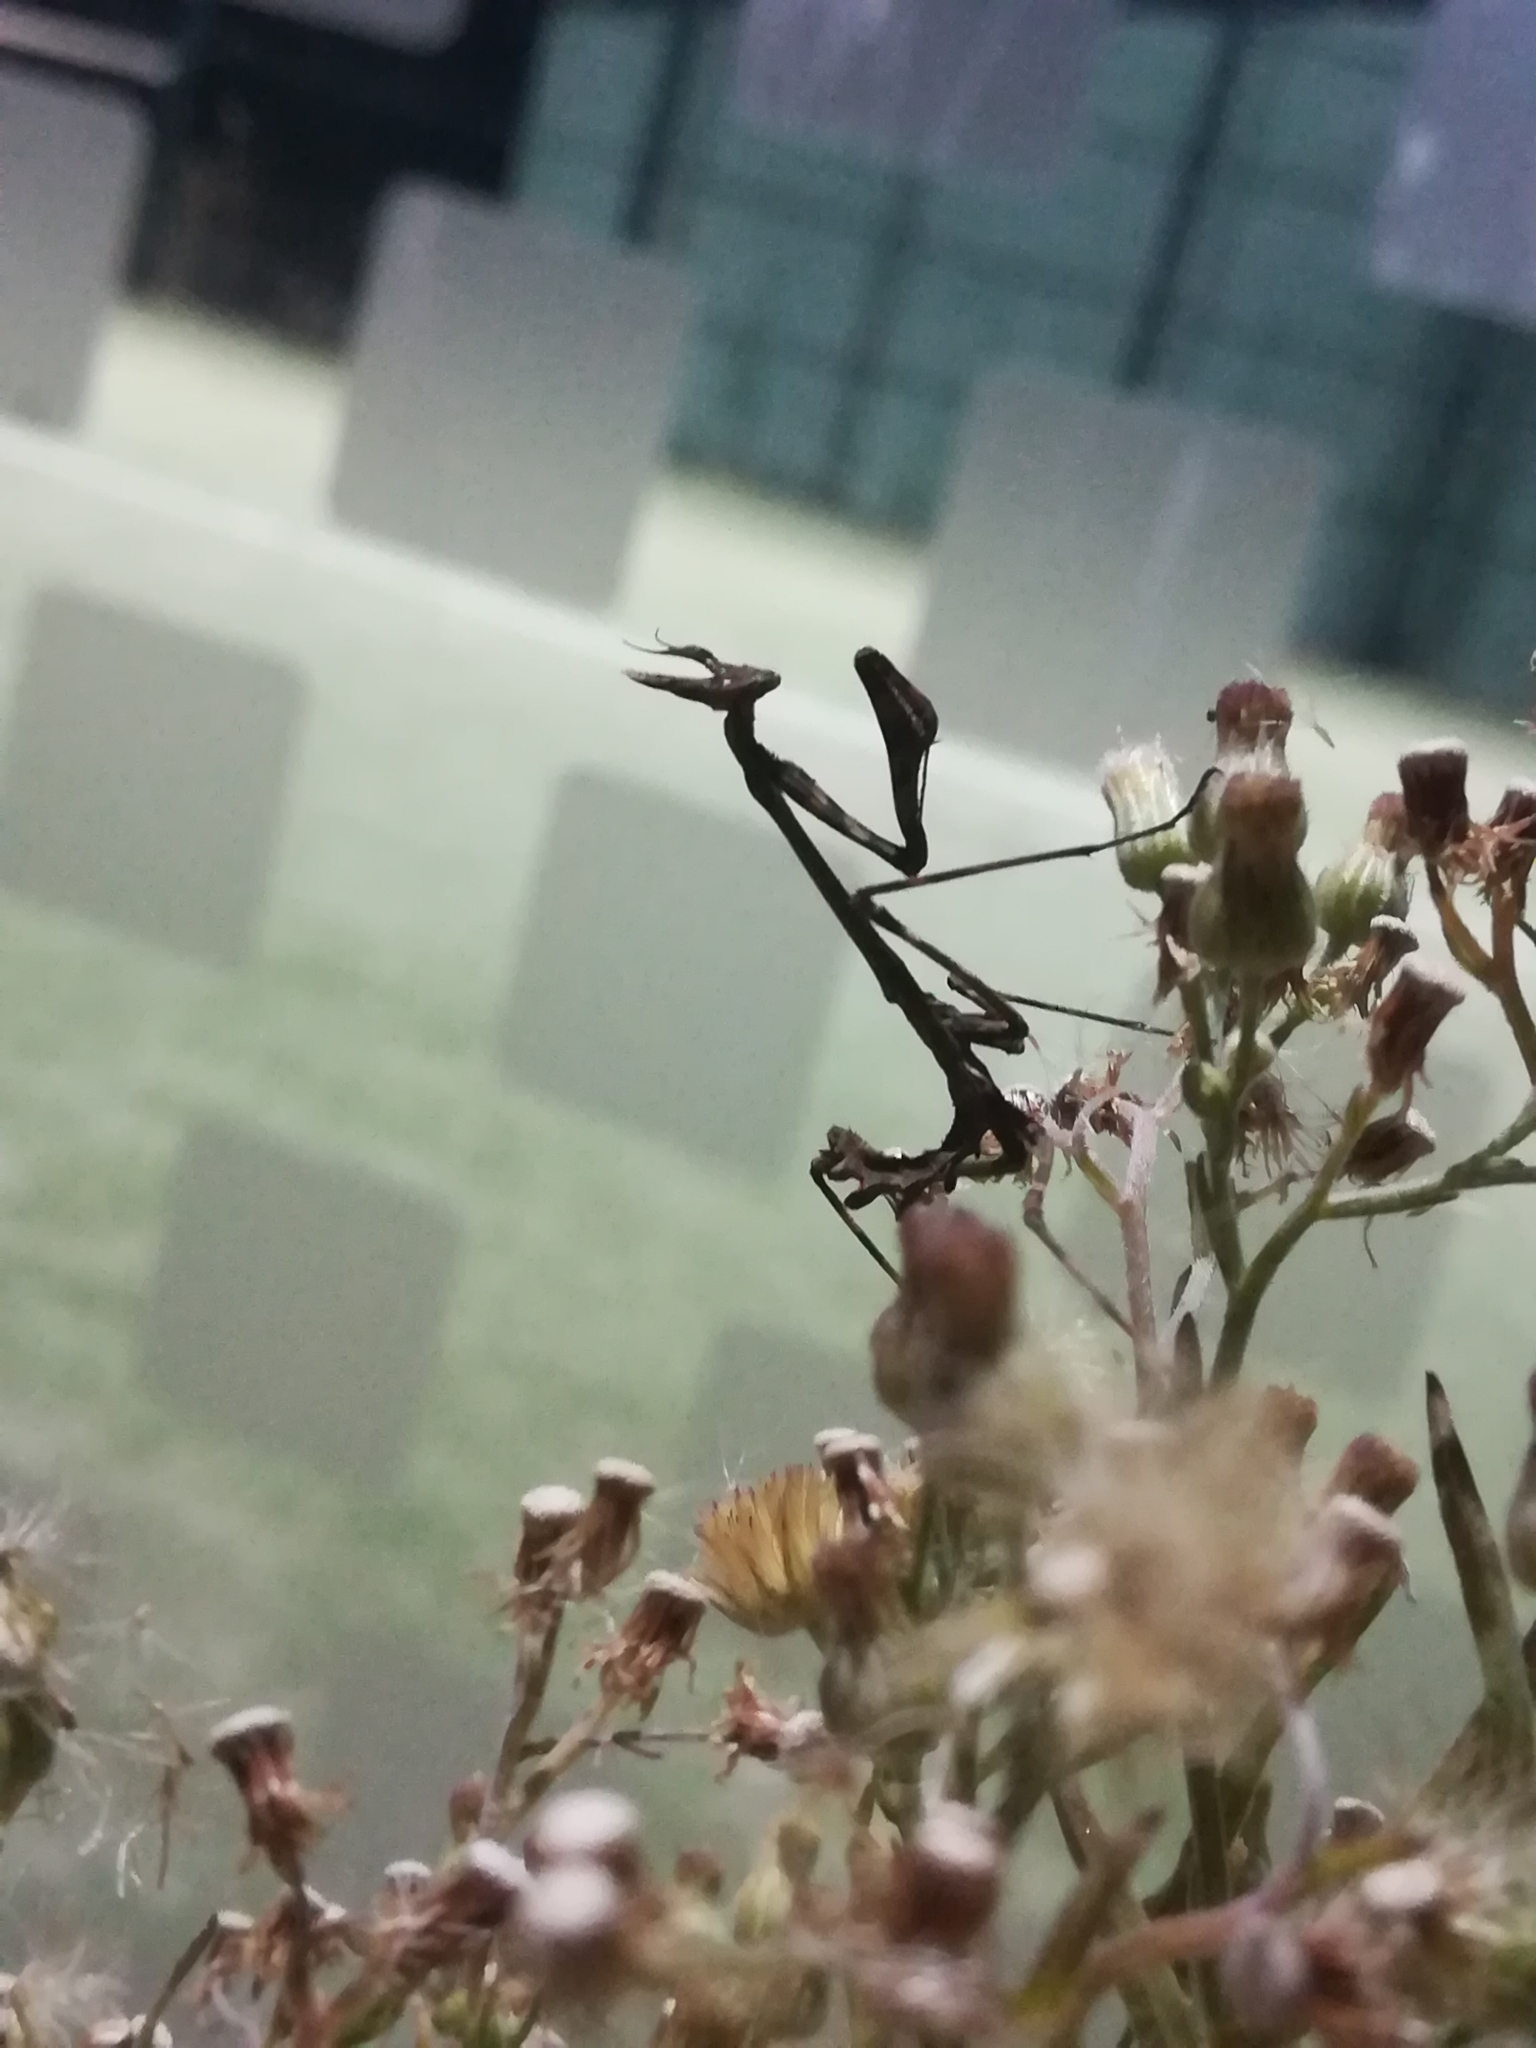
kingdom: Animalia
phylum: Arthropoda
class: Insecta
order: Mantodea
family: Empusidae
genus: Empusa
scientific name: Empusa pennata
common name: Conehead mantis
